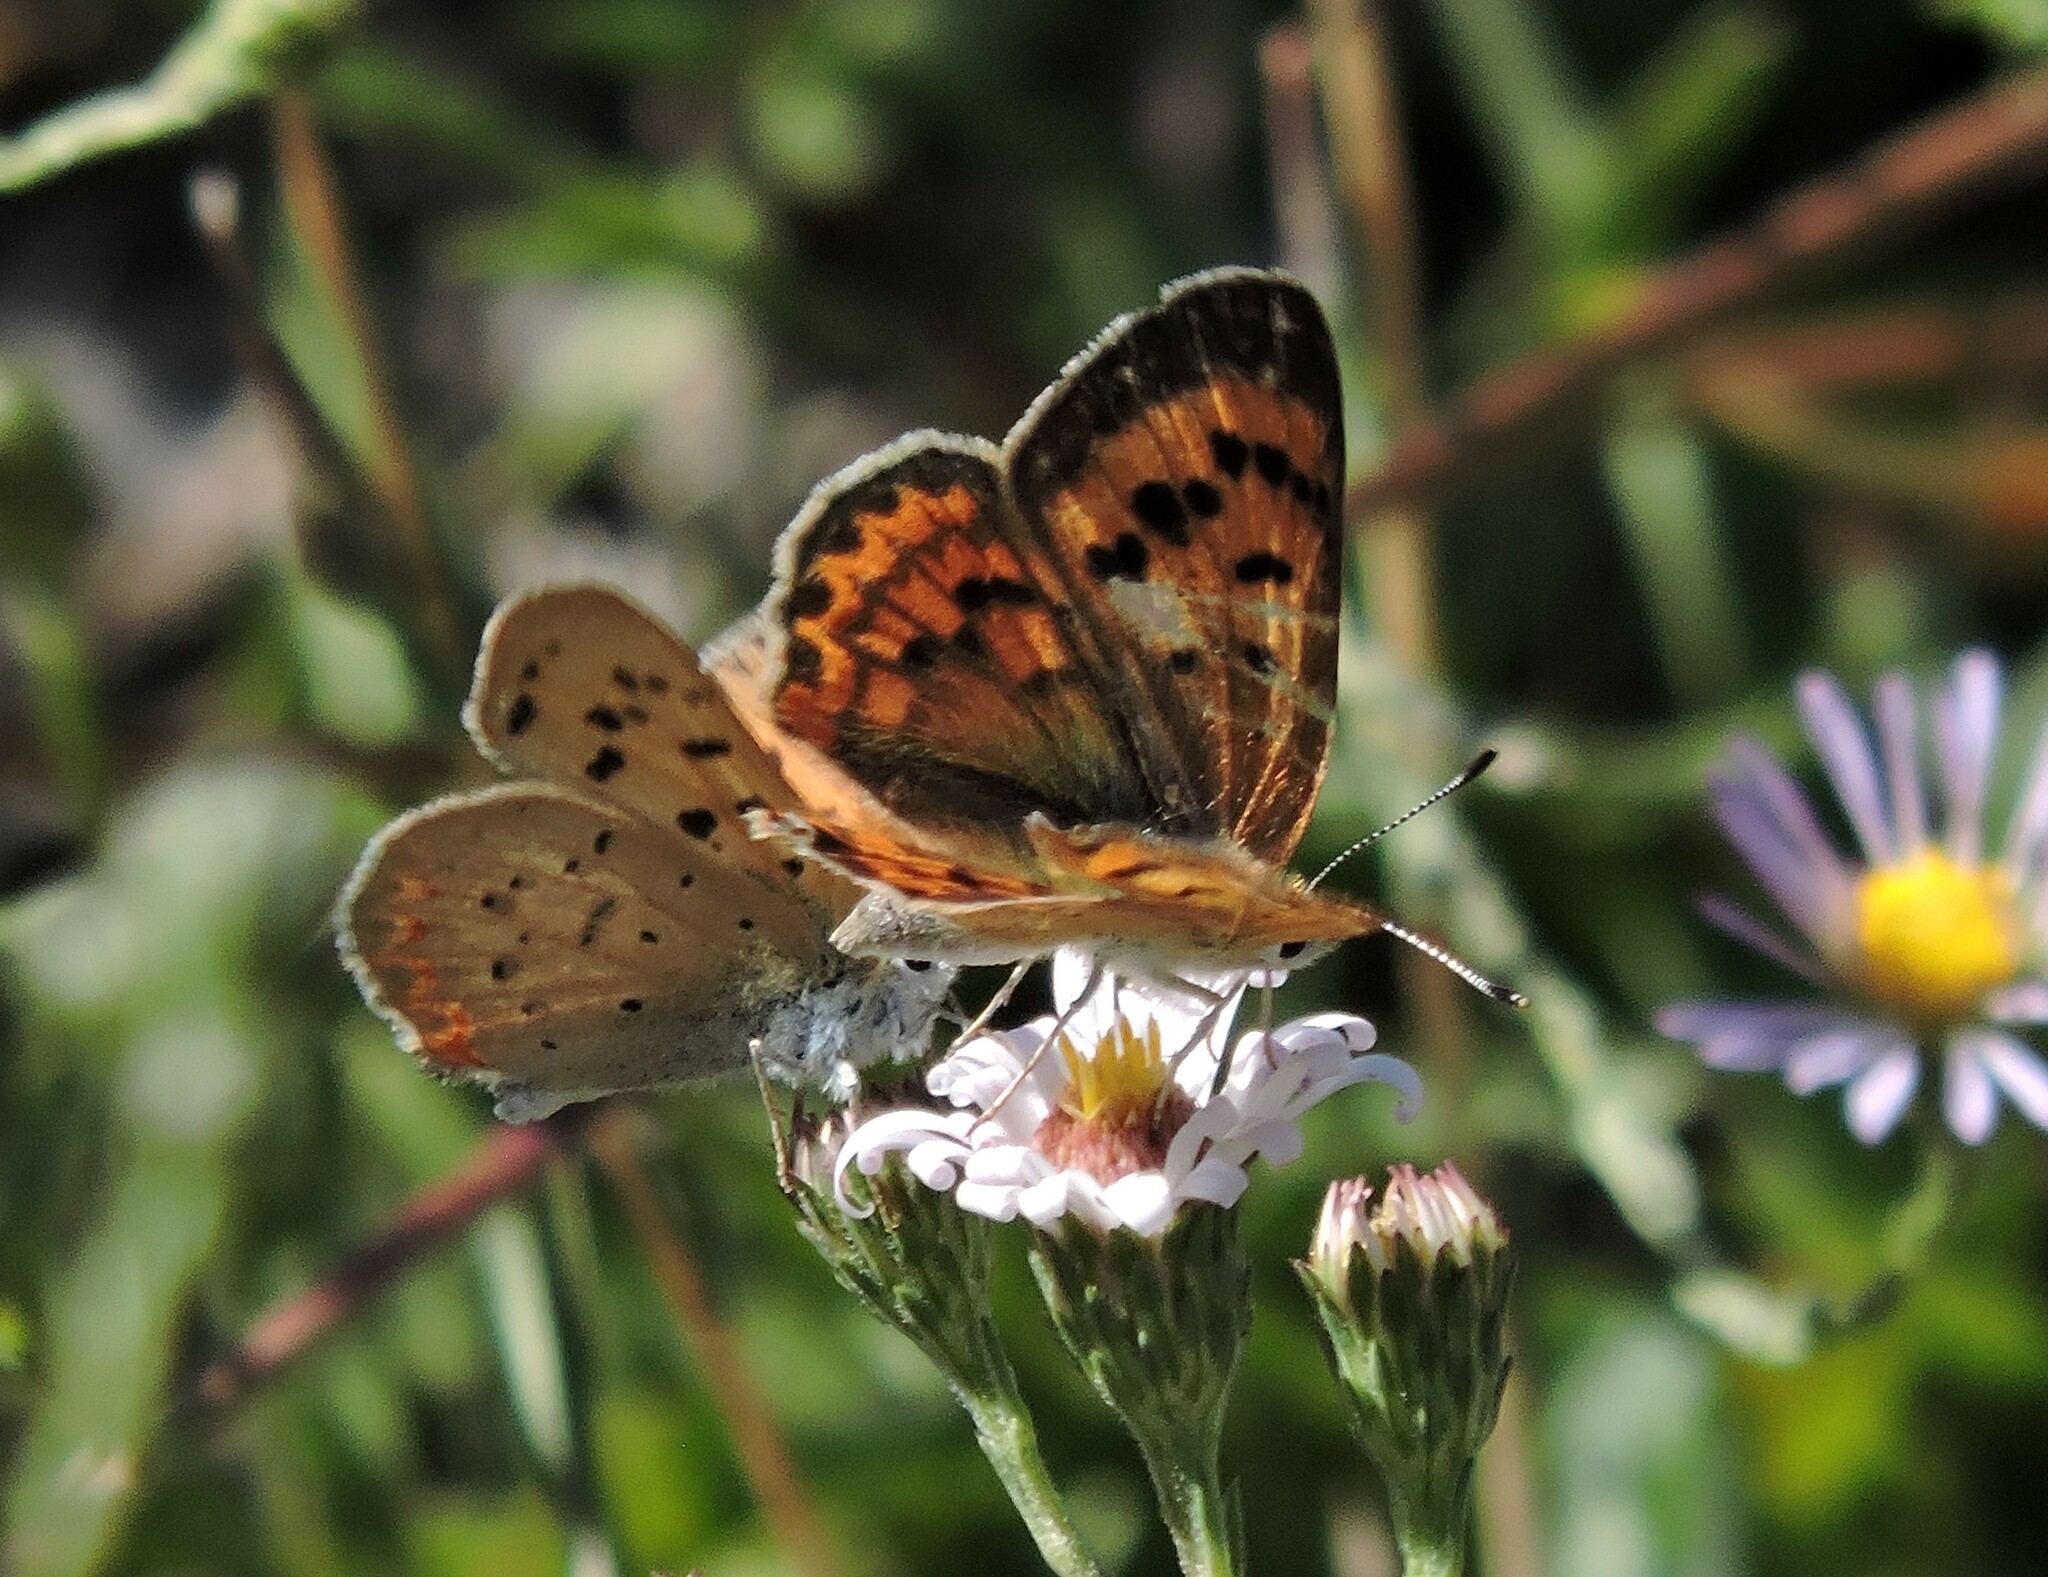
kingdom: Animalia
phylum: Arthropoda
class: Insecta
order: Lepidoptera
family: Lycaenidae
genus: Tharsalea
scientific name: Tharsalea helloides
